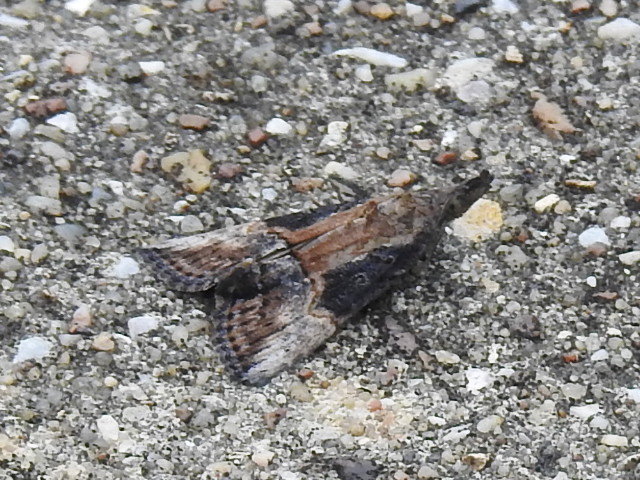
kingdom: Animalia
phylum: Arthropoda
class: Insecta
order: Lepidoptera
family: Erebidae
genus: Hypena
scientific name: Hypena scabra
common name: Green cloverworm
